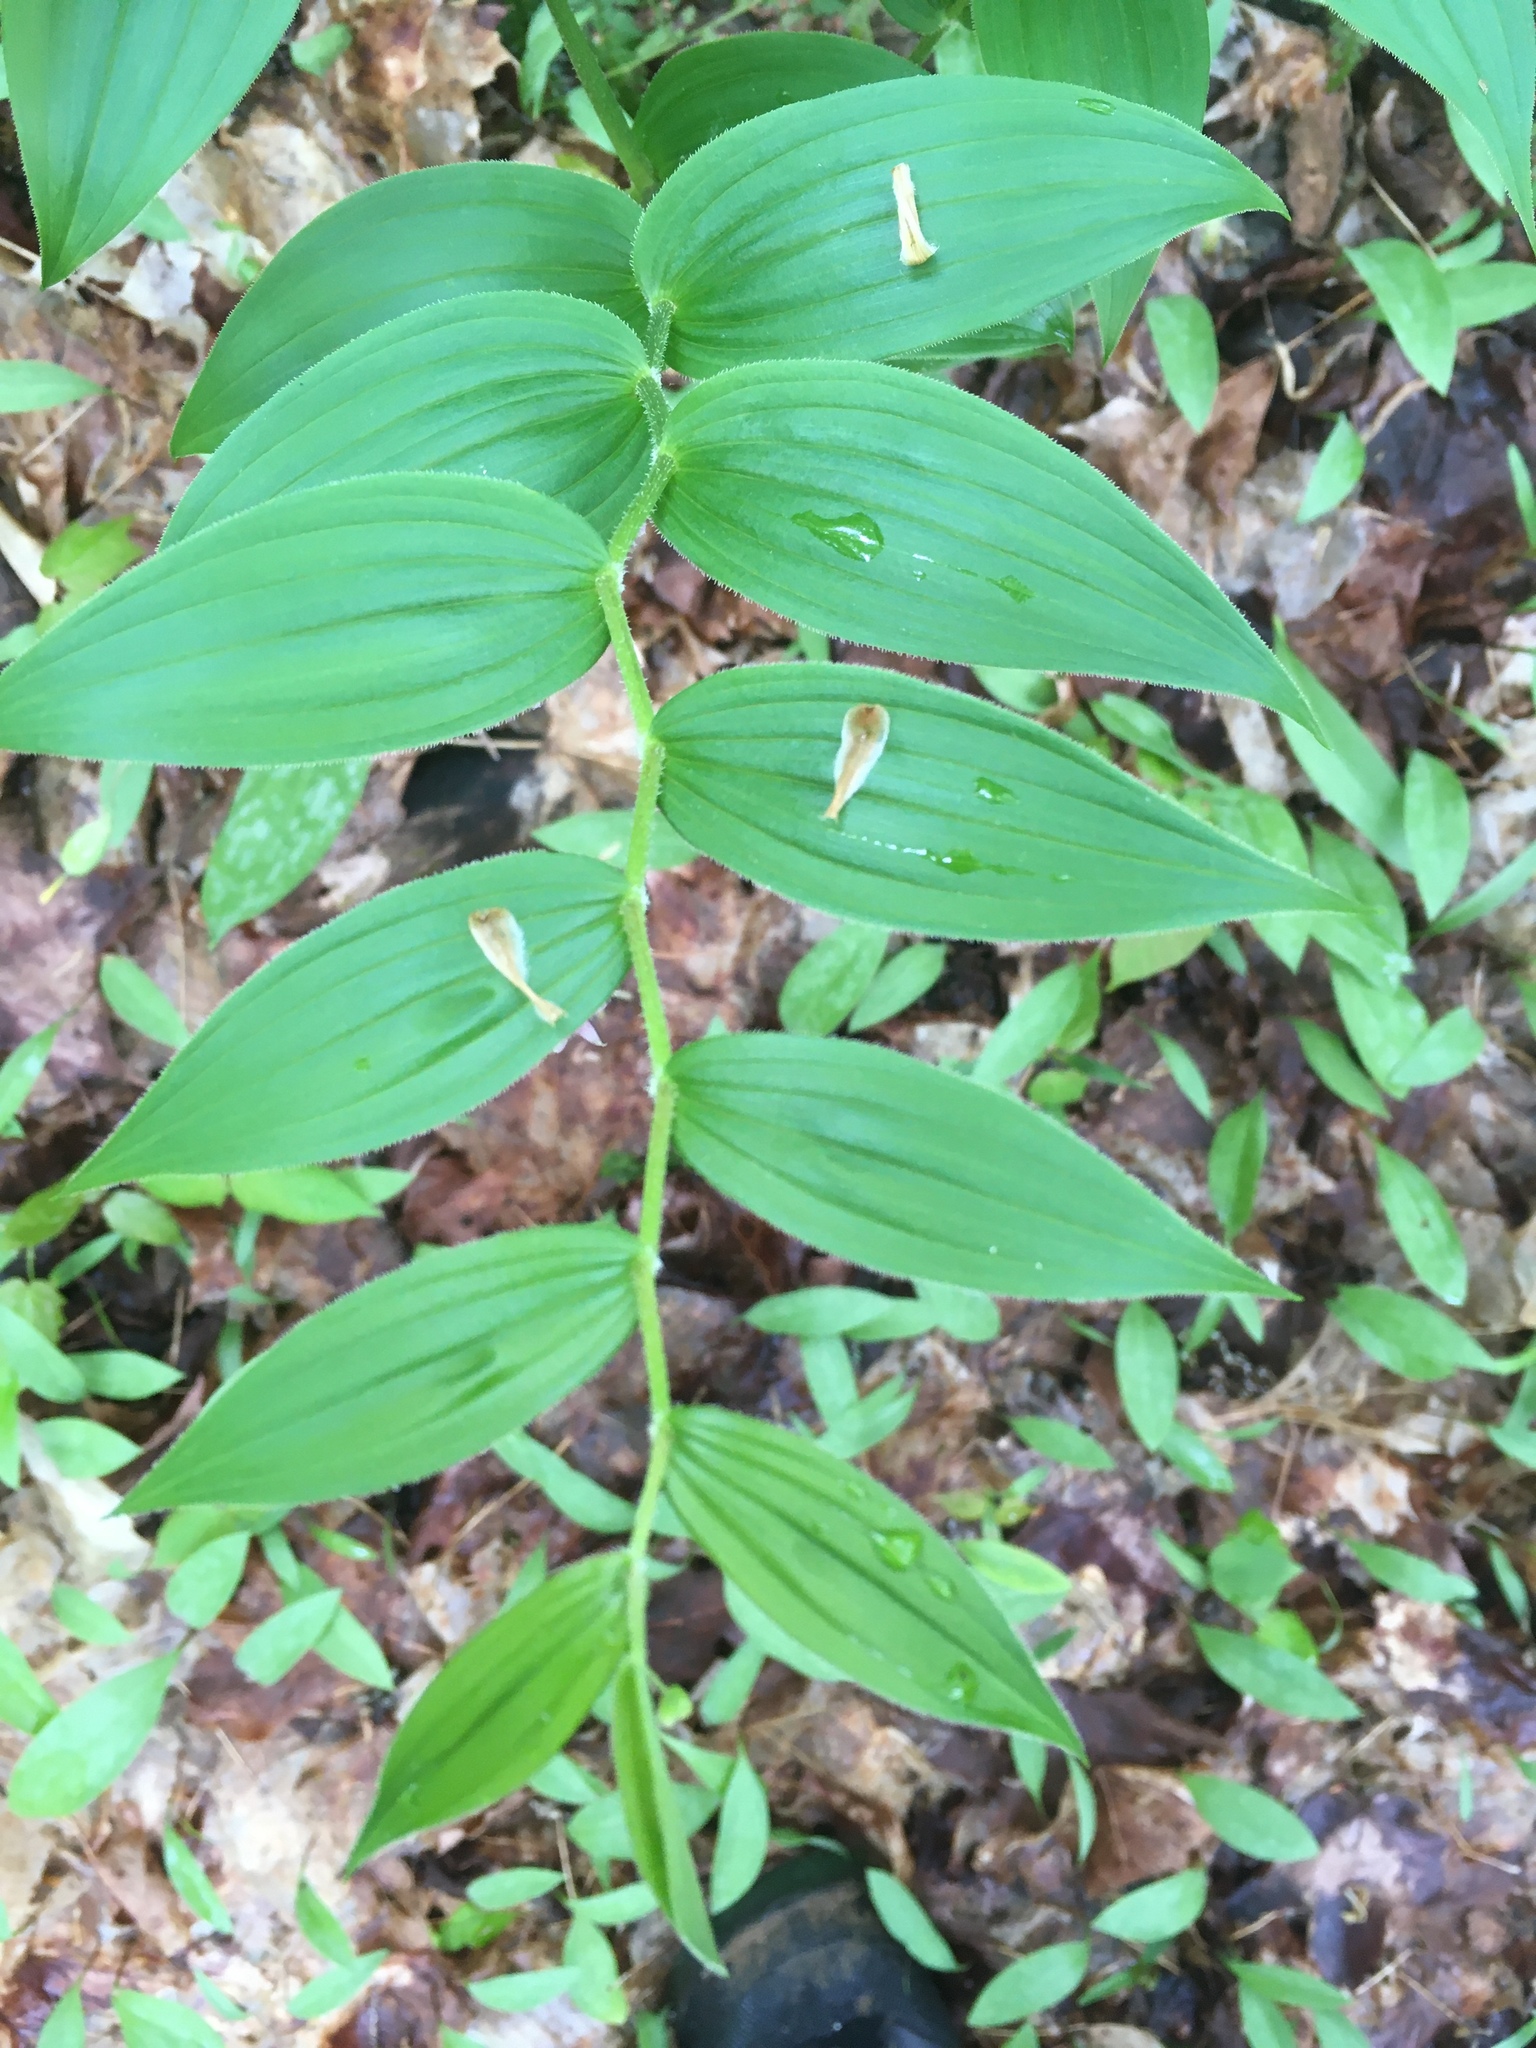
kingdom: Plantae
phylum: Tracheophyta
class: Liliopsida
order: Liliales
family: Liliaceae
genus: Streptopus
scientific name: Streptopus lanceolatus
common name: Rose mandarin
